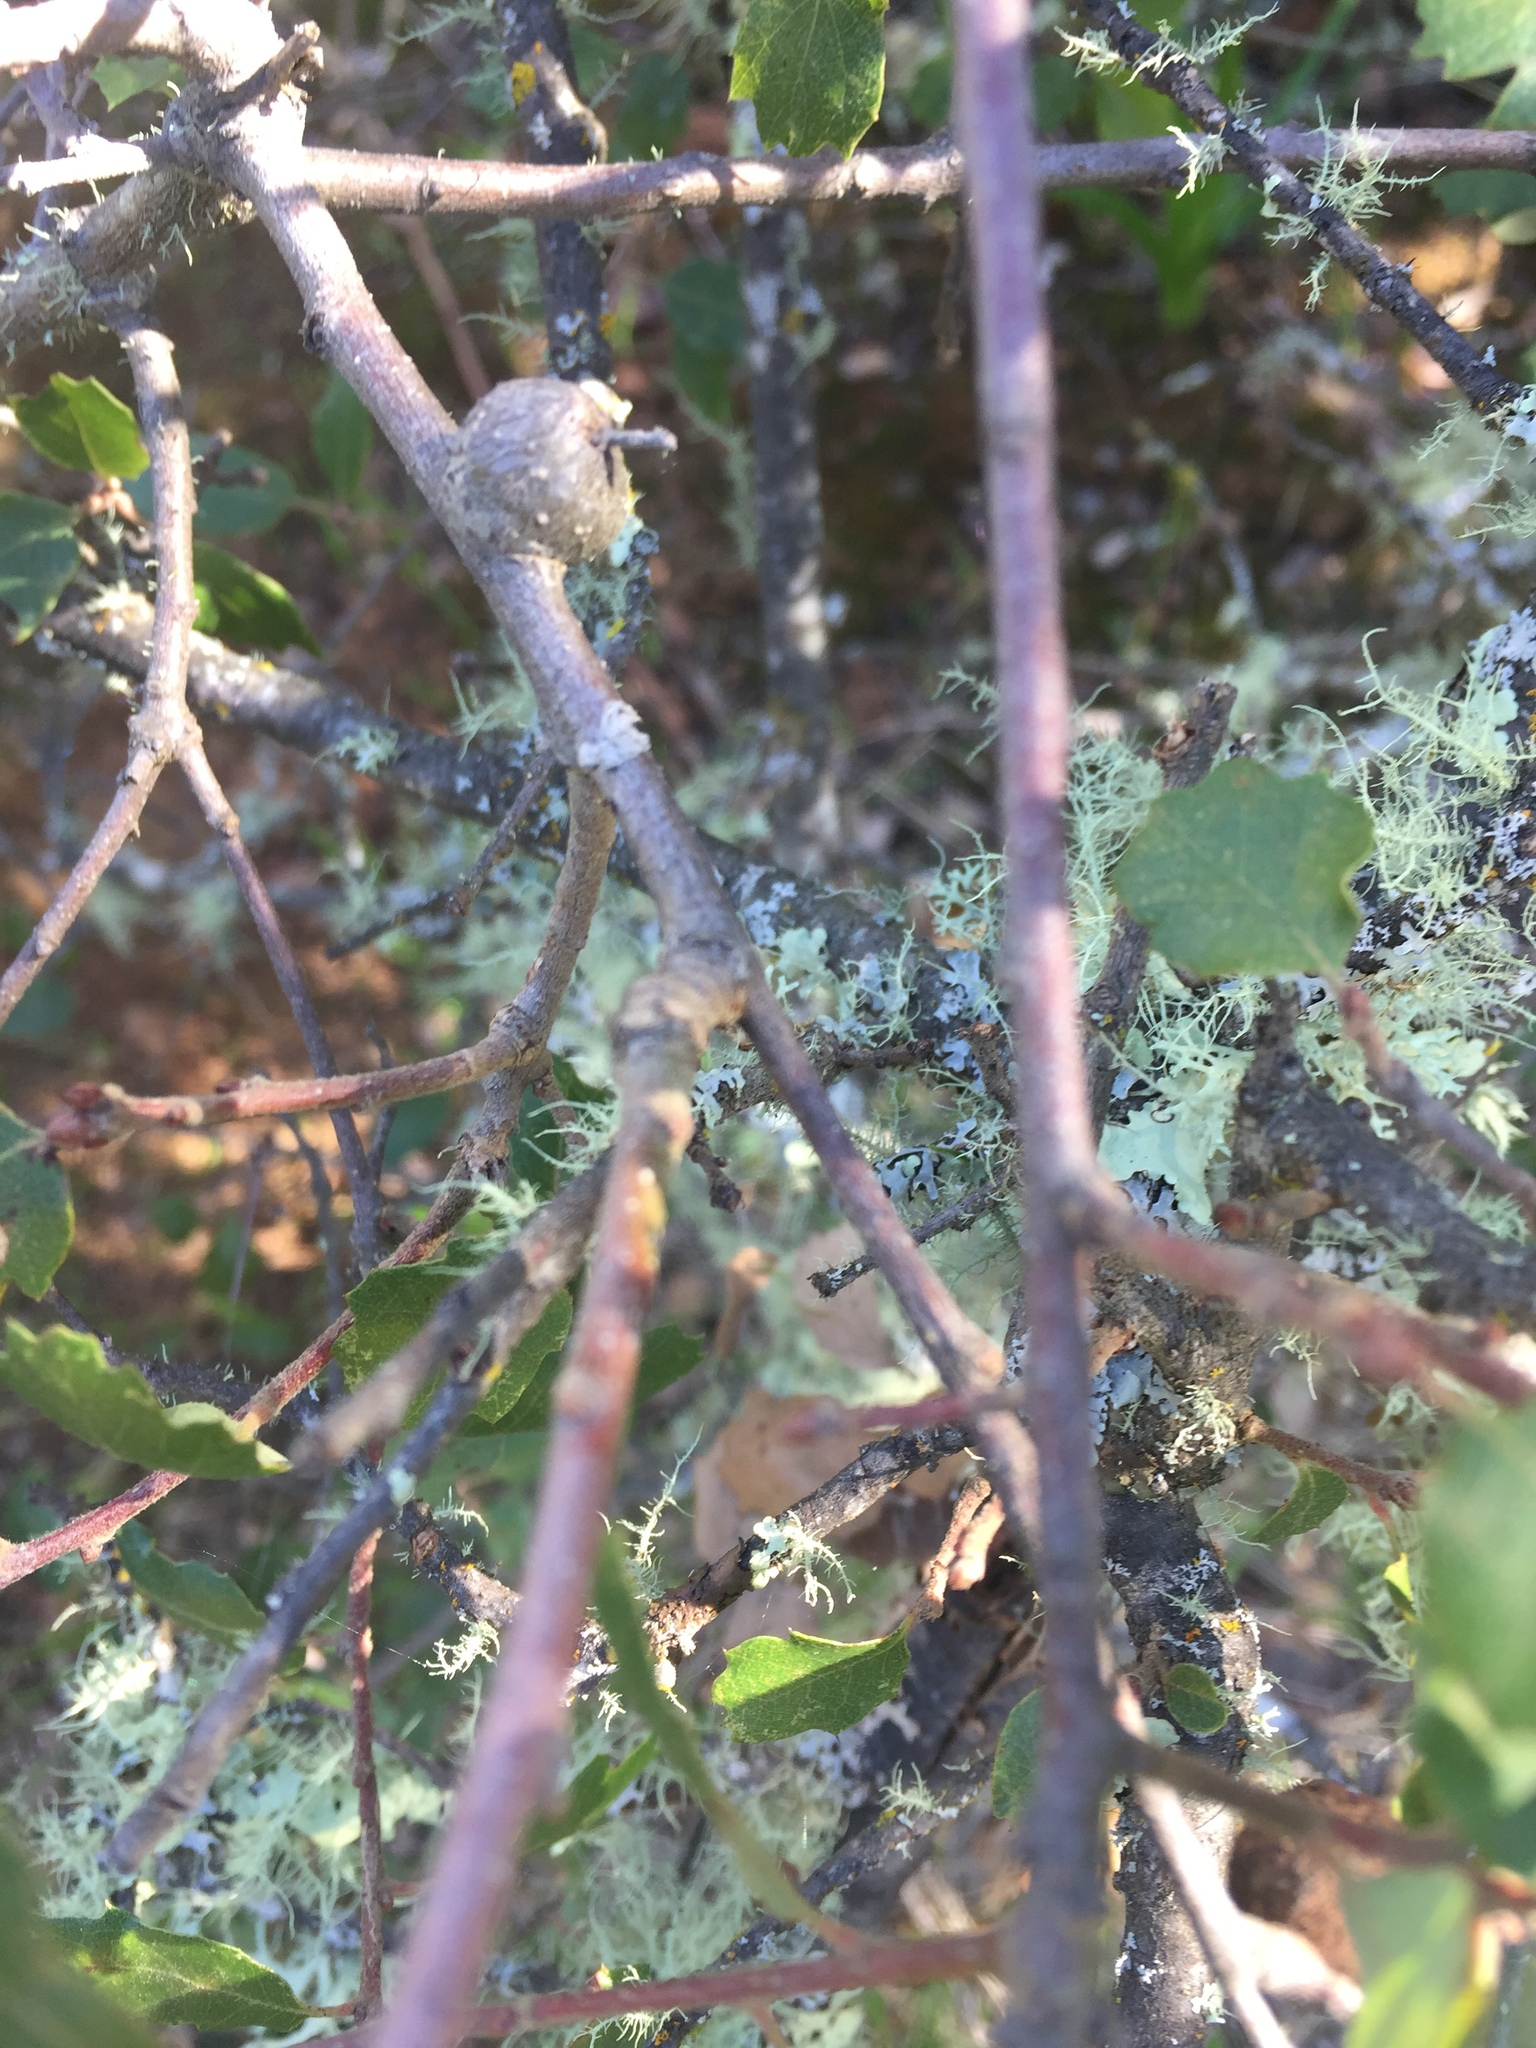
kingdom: Plantae
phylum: Tracheophyta
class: Magnoliopsida
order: Fagales
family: Fagaceae
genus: Quercus
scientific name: Quercus berberidifolia
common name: California scrub oak
